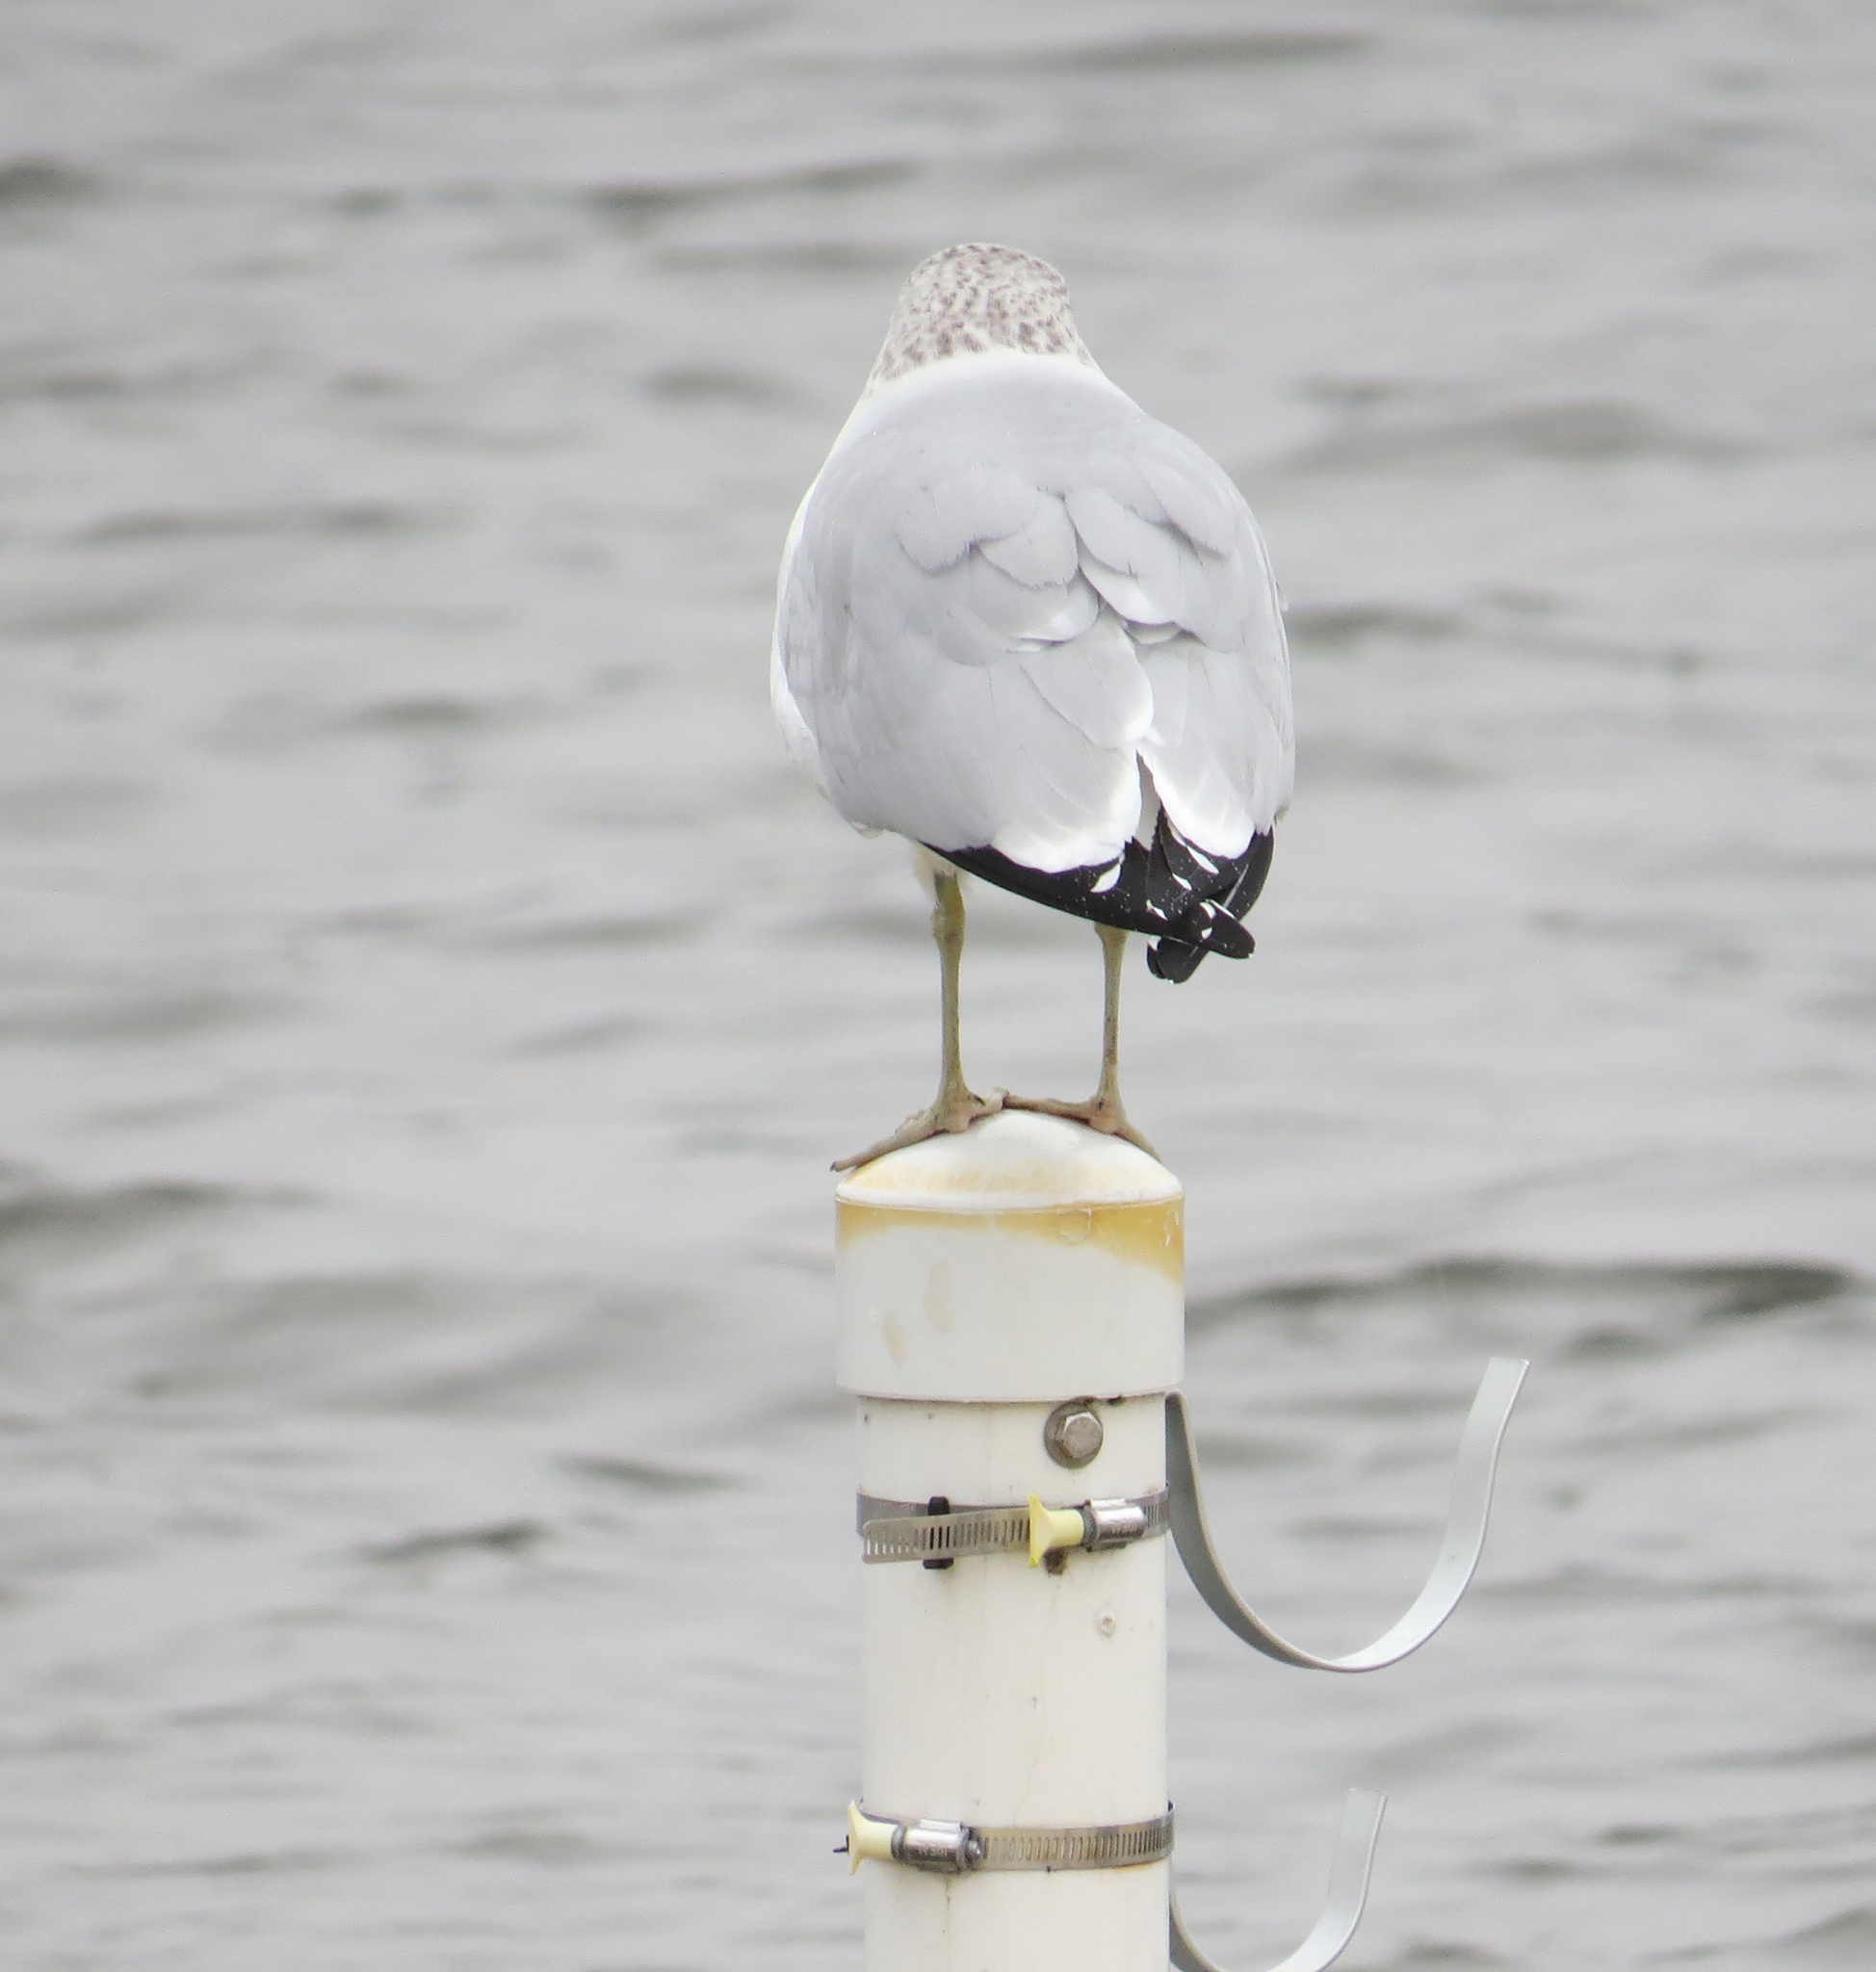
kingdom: Animalia
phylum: Chordata
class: Aves
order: Charadriiformes
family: Laridae
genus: Larus
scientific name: Larus delawarensis
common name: Ring-billed gull
